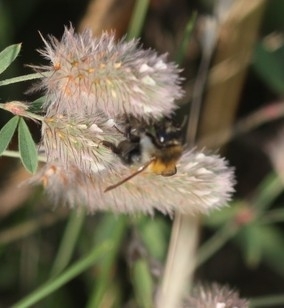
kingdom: Animalia
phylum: Arthropoda
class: Insecta
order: Hymenoptera
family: Apidae
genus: Bombus
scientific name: Bombus pascuorum
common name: Common carder bee
